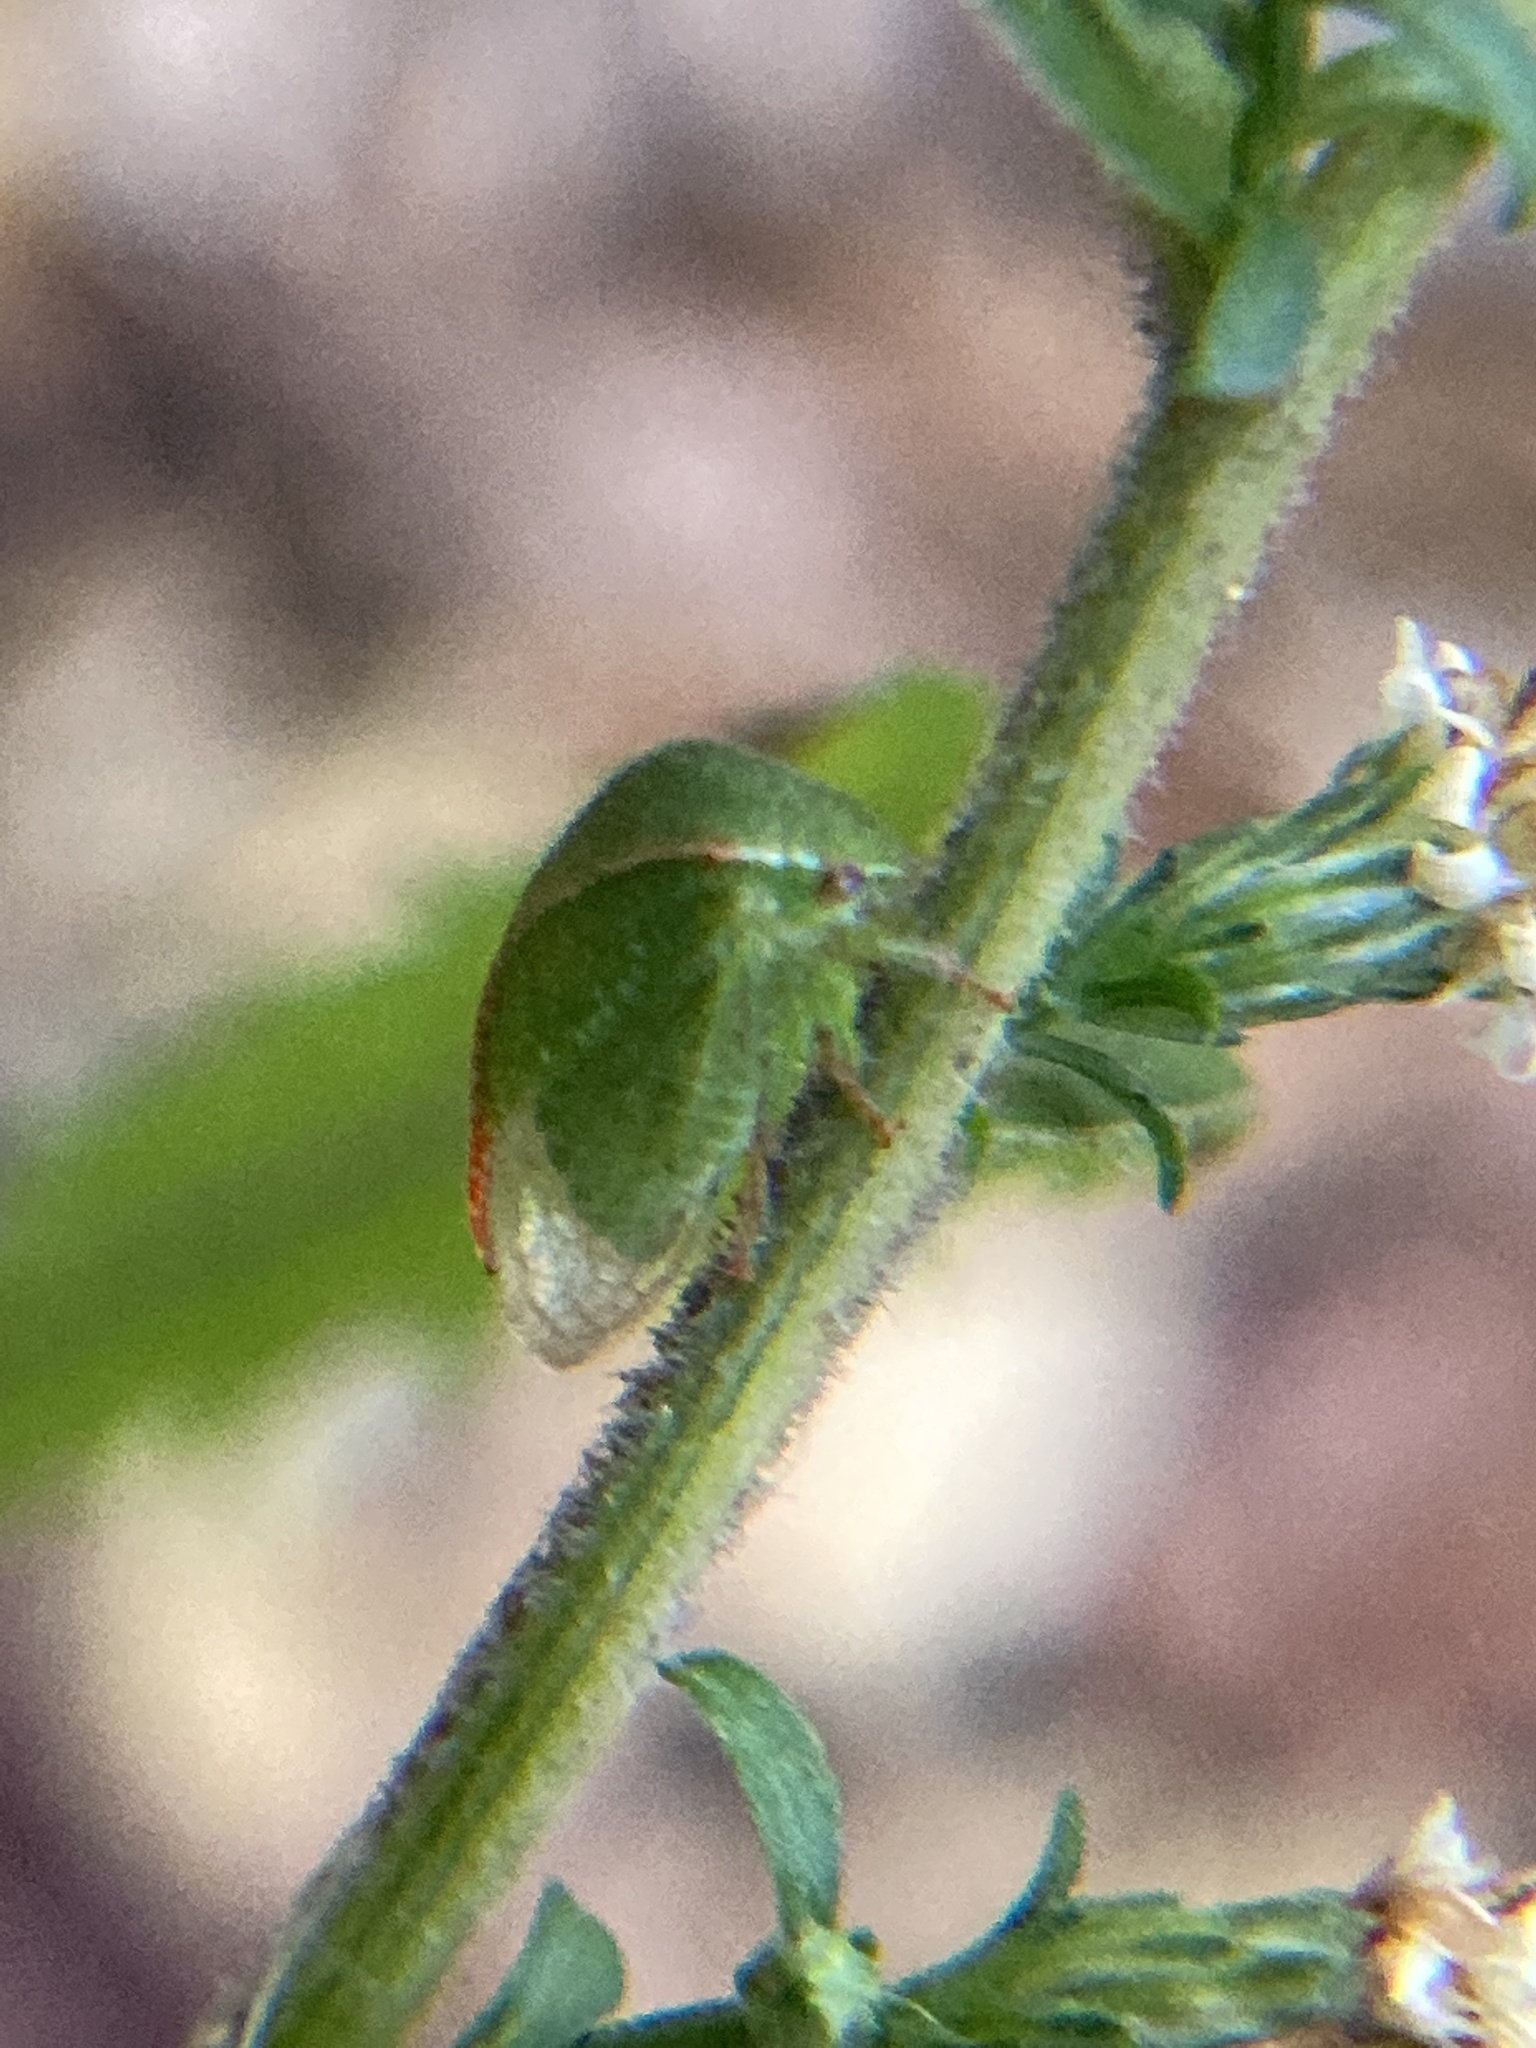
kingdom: Animalia
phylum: Arthropoda
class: Insecta
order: Hemiptera
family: Membracidae
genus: Spissistilus
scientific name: Spissistilus festina
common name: Membracid bug
